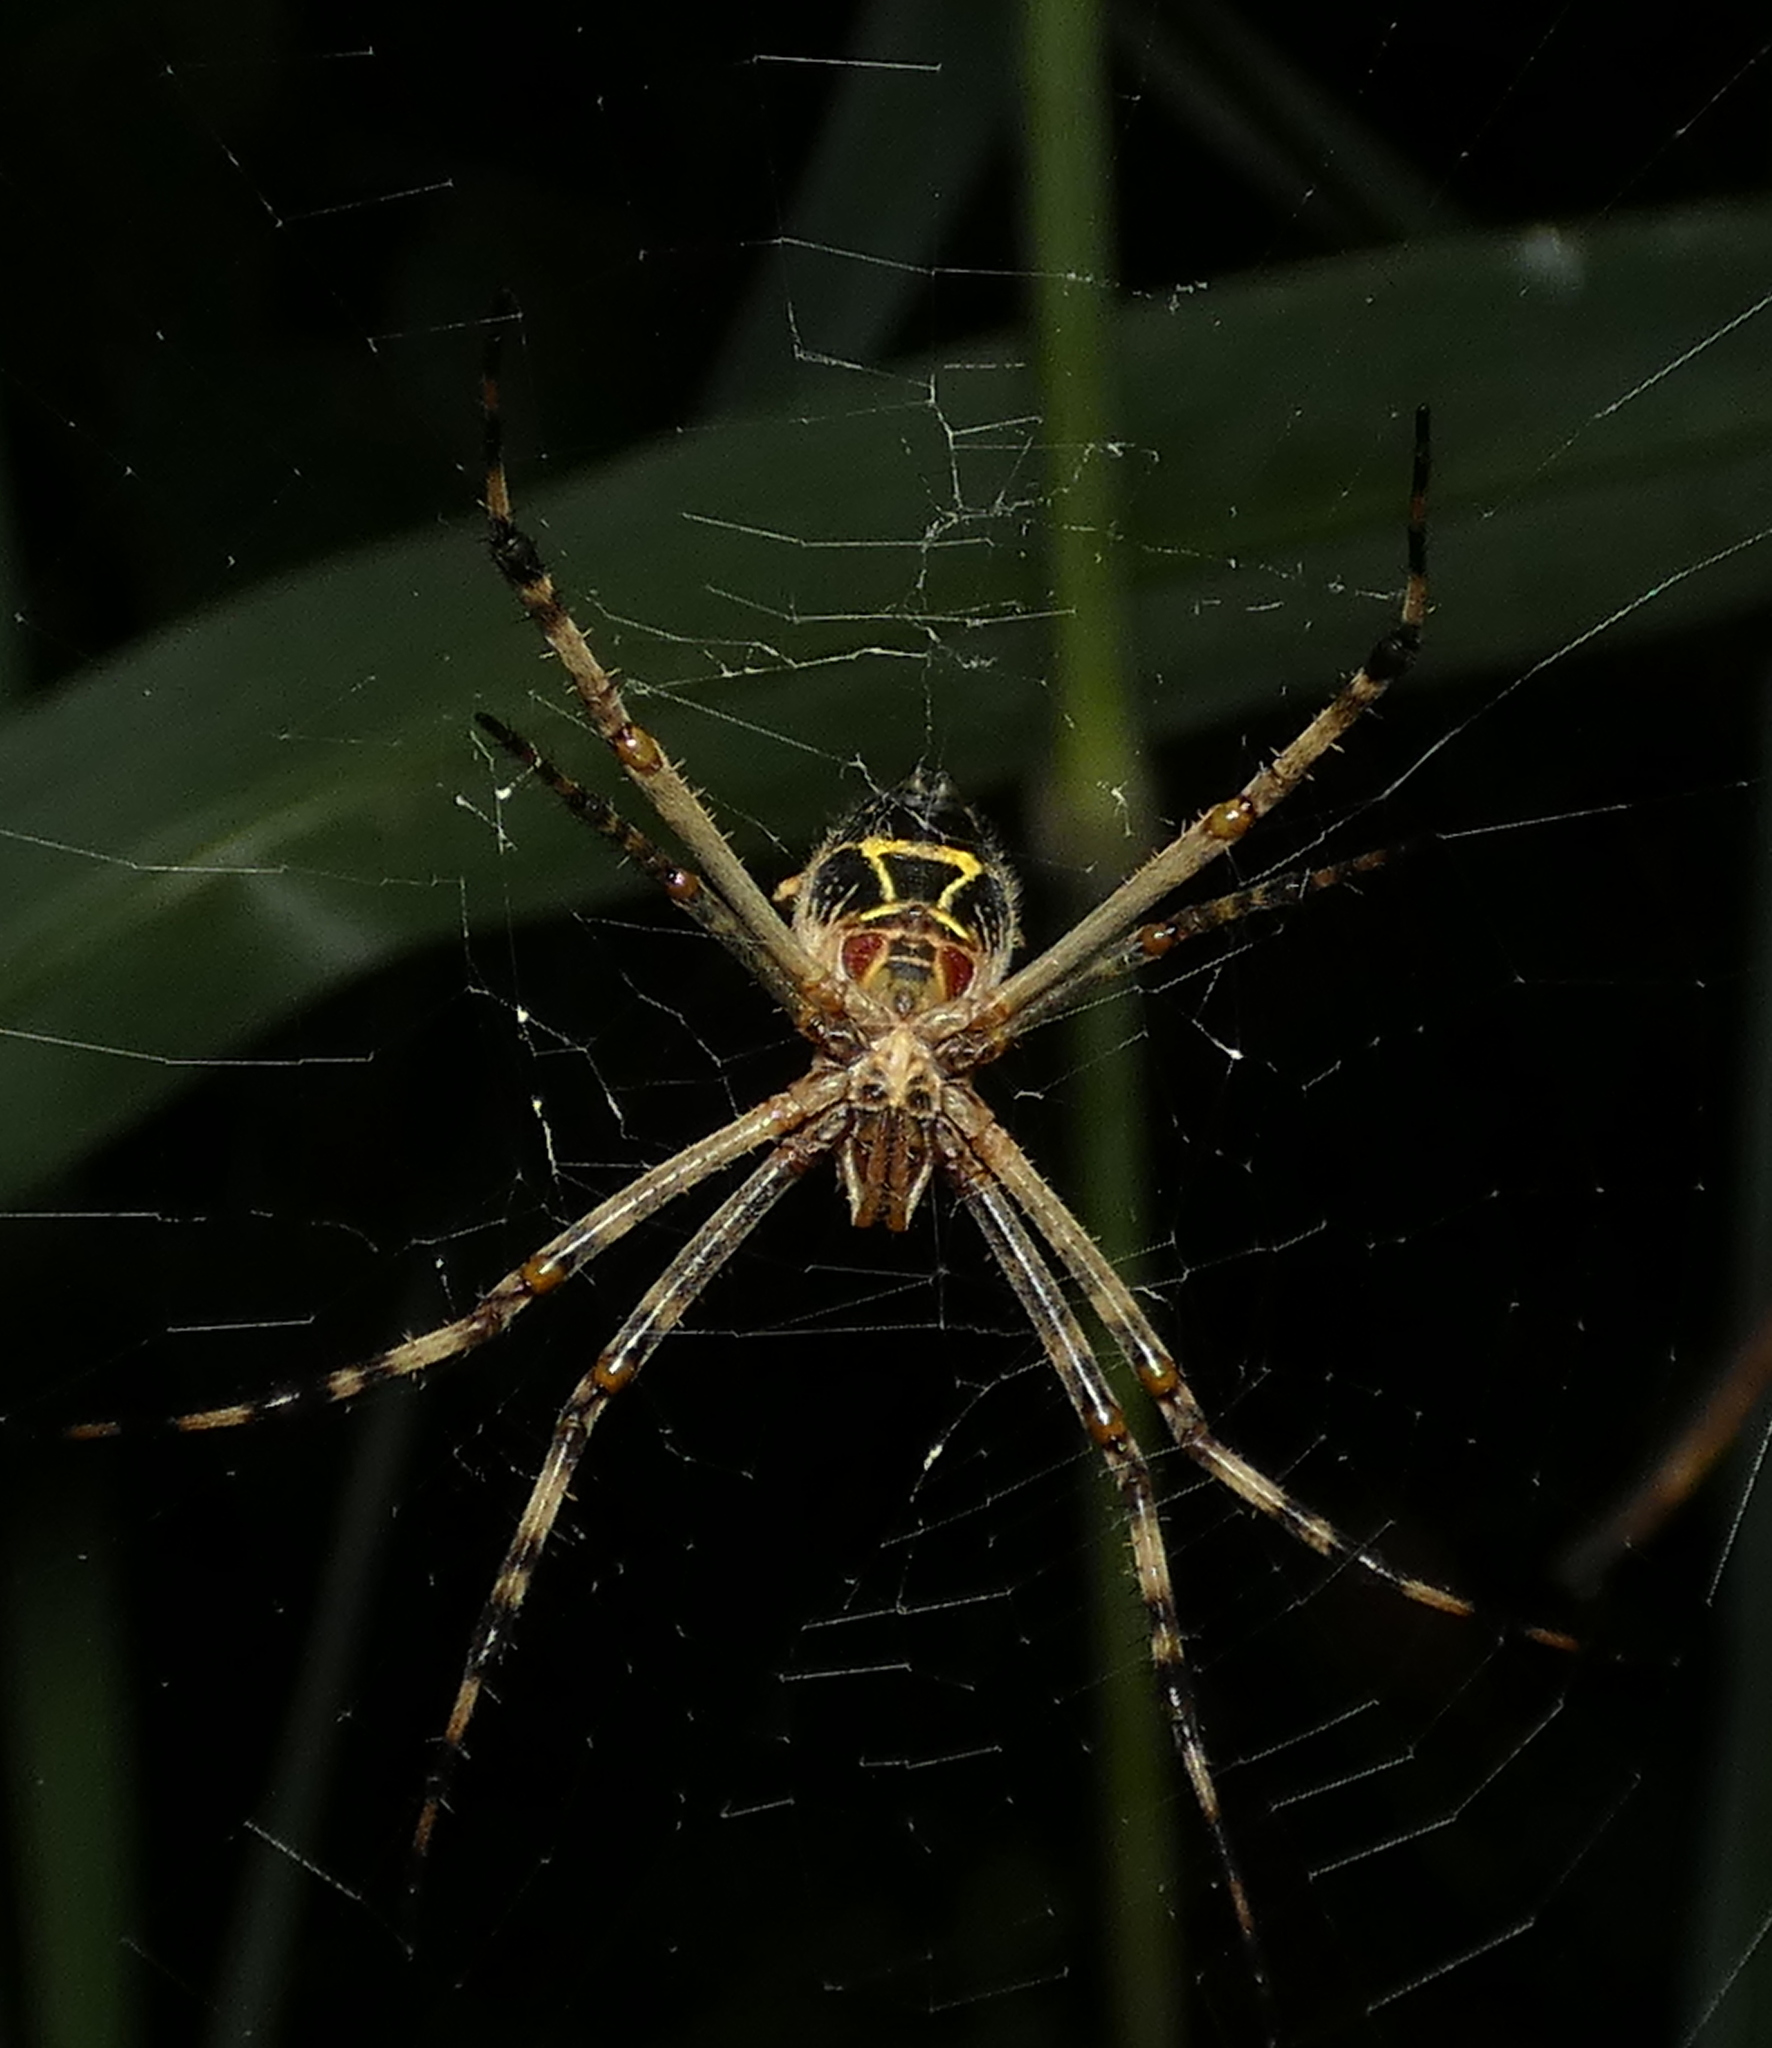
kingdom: Animalia
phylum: Arthropoda
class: Arachnida
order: Araneae
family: Araneidae
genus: Argiope
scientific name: Argiope argentata
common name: Orb weavers
